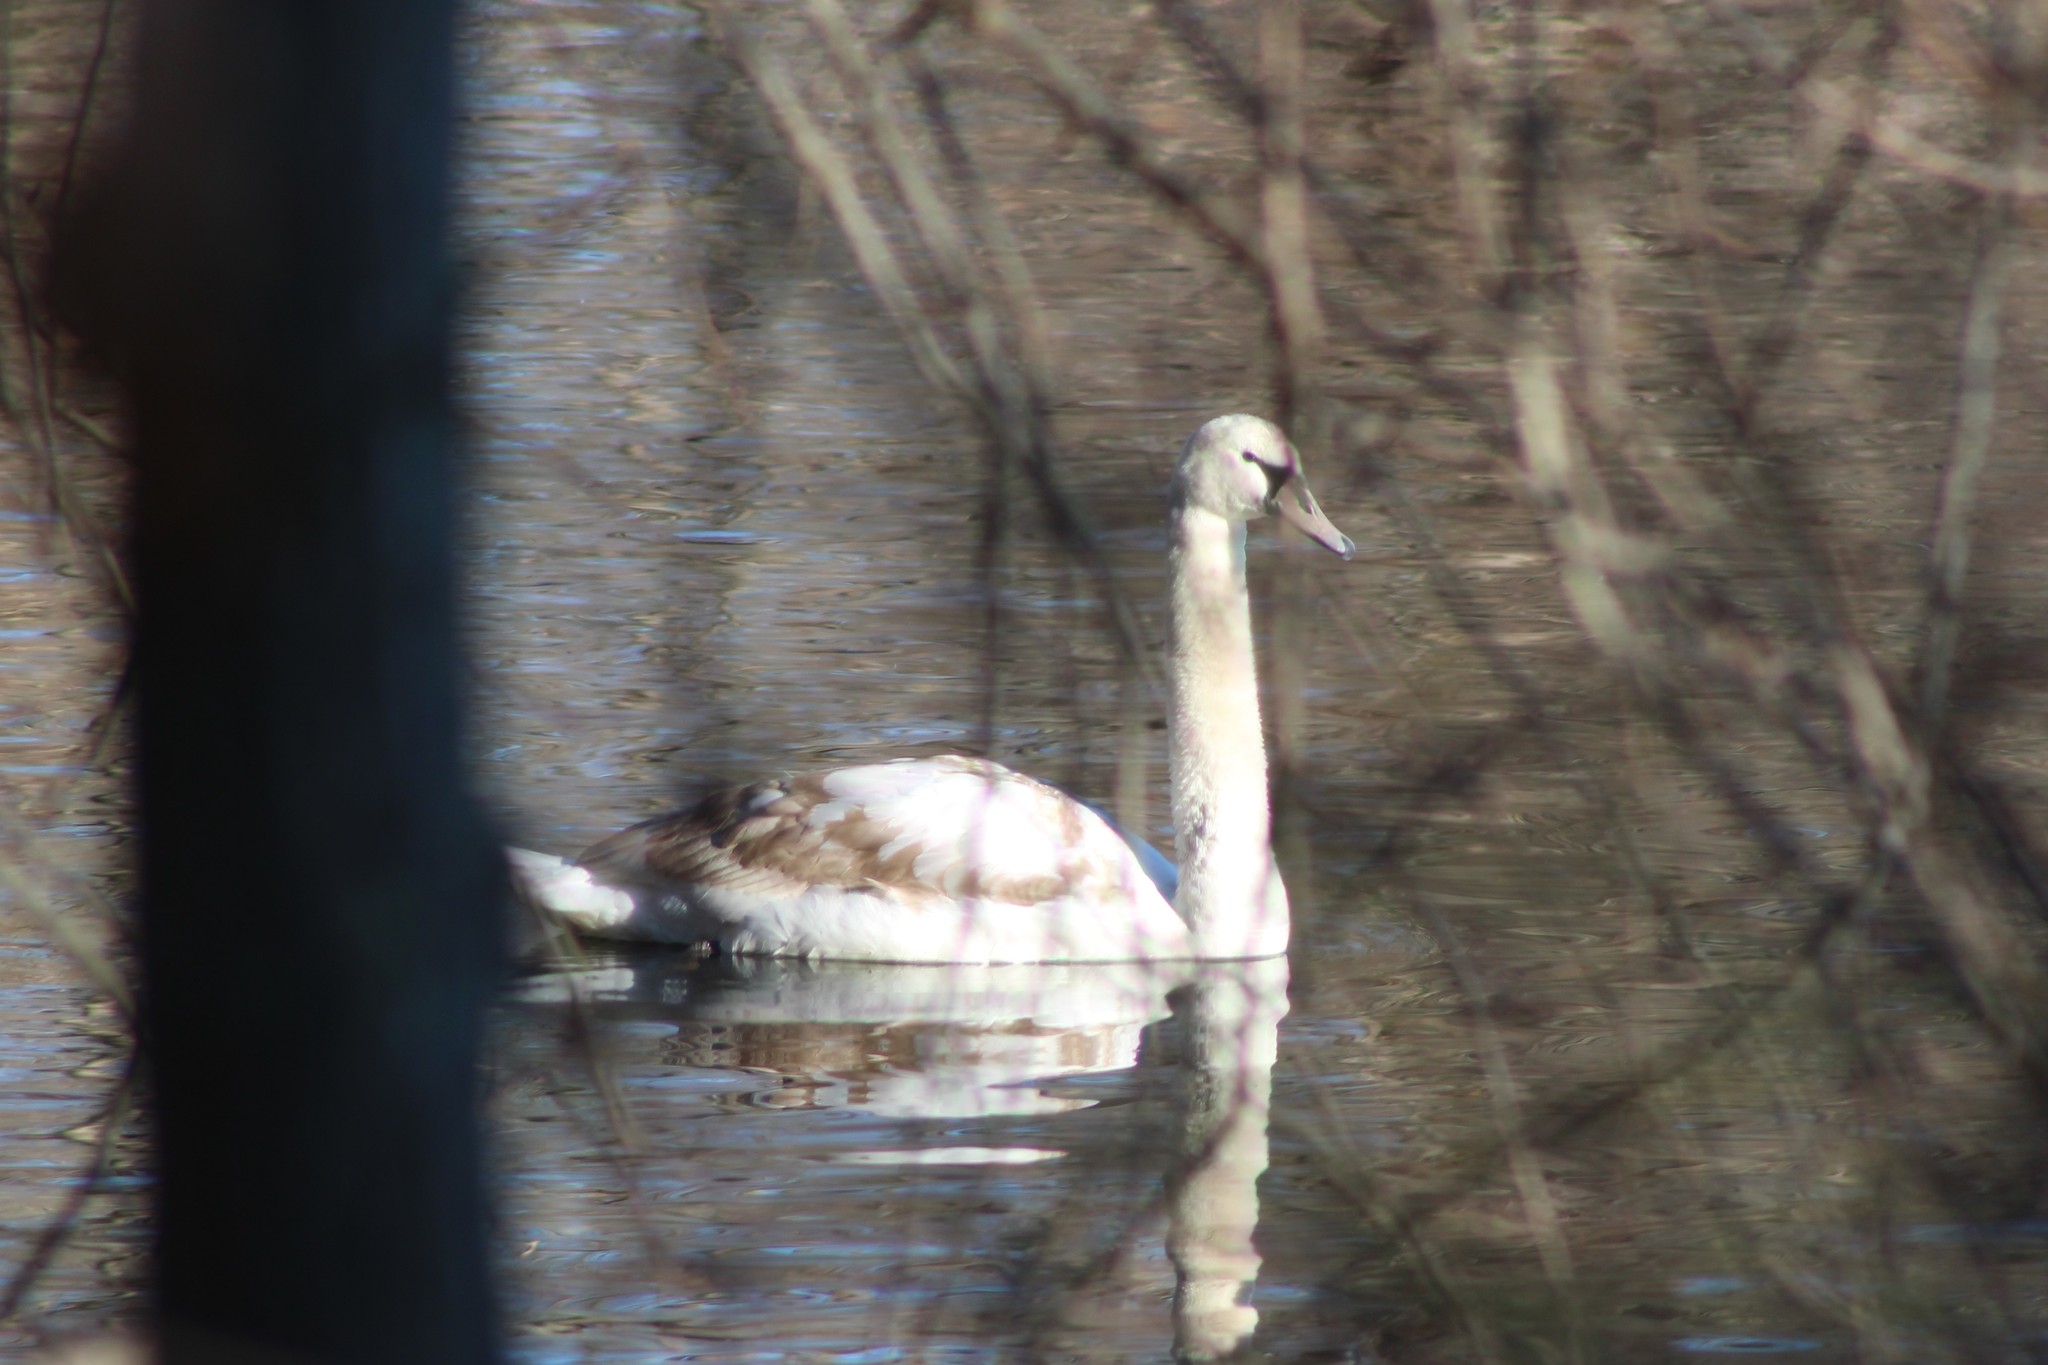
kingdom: Animalia
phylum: Chordata
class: Aves
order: Anseriformes
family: Anatidae
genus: Cygnus
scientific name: Cygnus olor
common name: Mute swan
